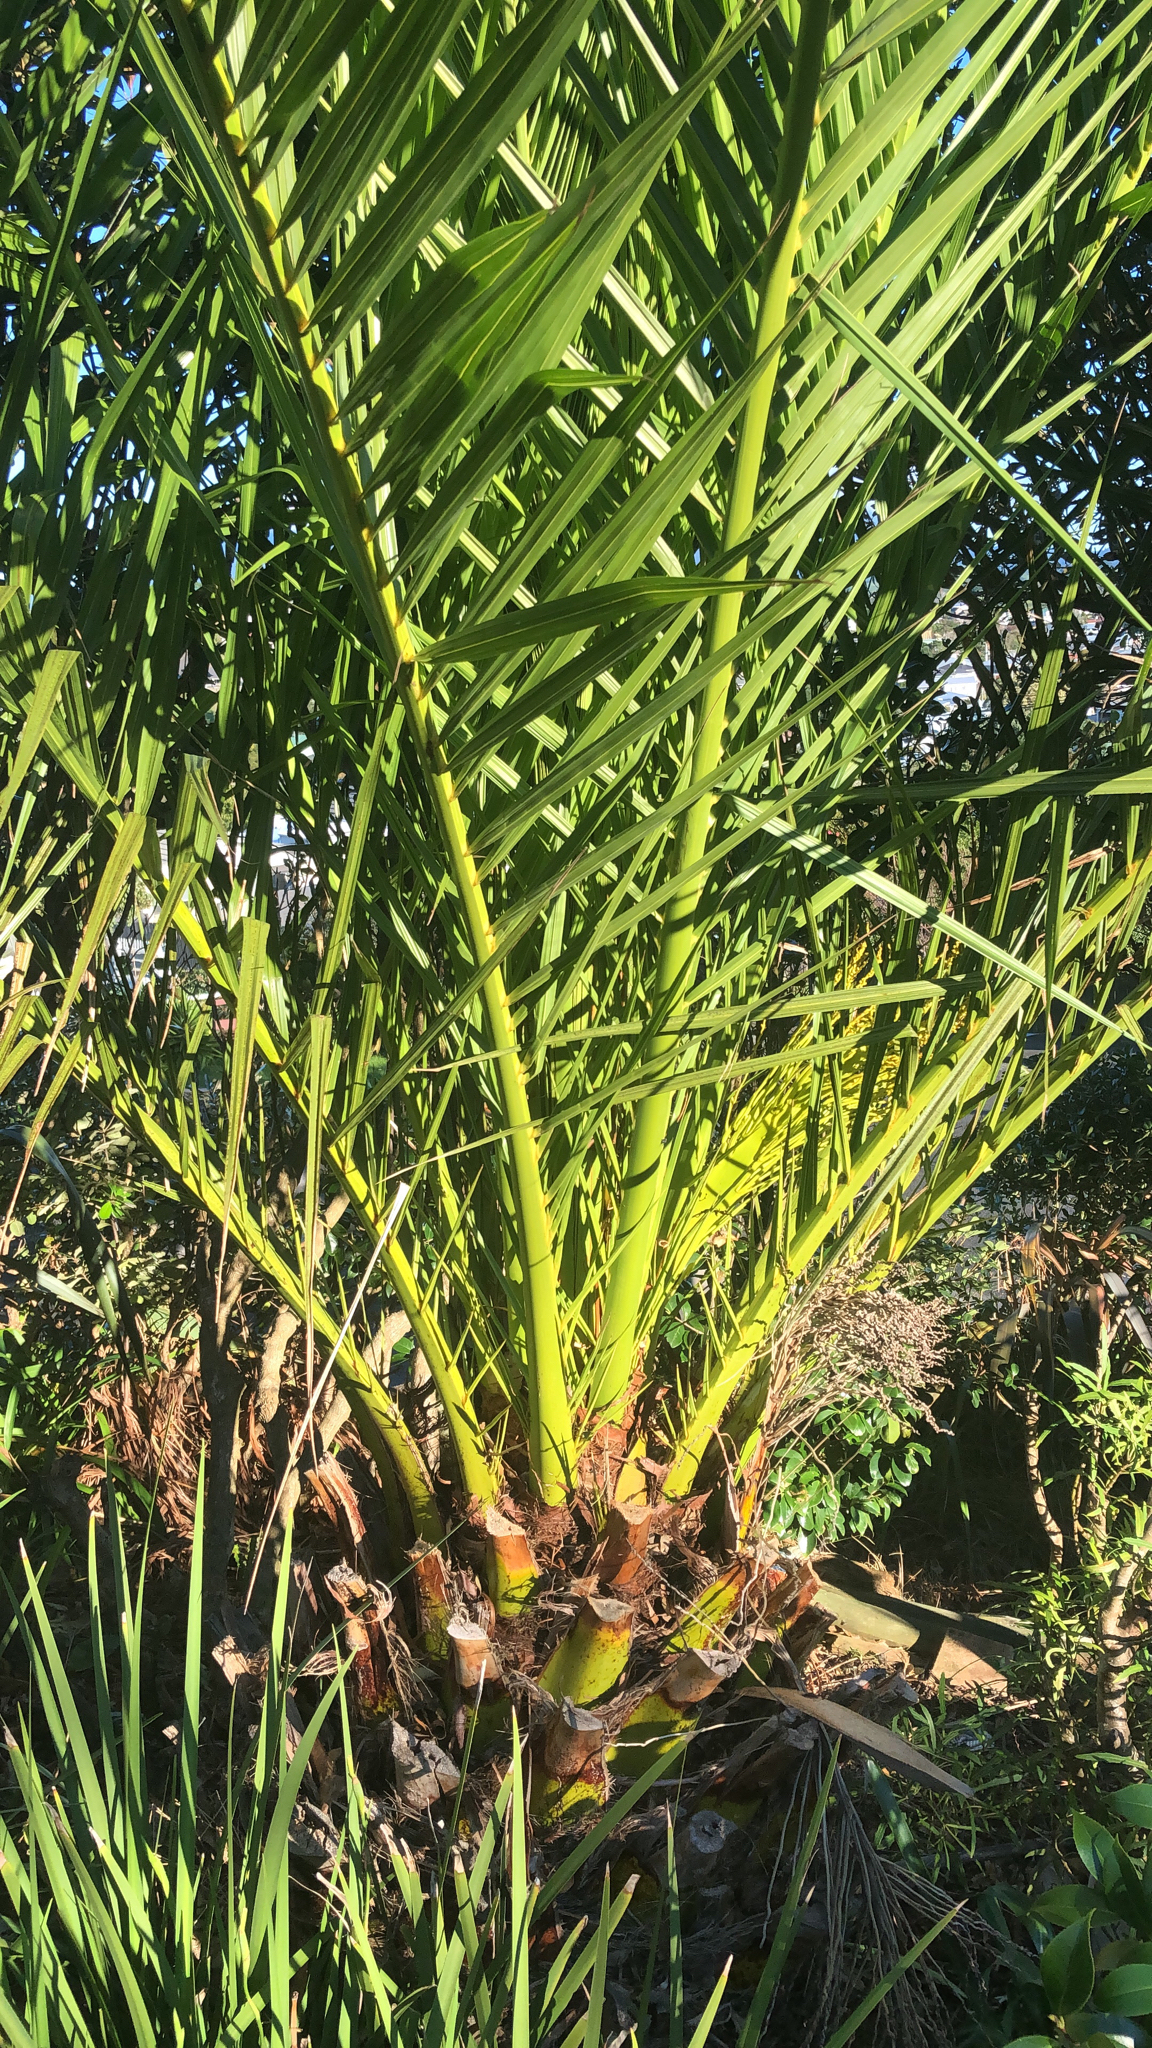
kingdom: Plantae
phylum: Tracheophyta
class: Liliopsida
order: Arecales
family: Arecaceae
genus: Phoenix
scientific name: Phoenix canariensis
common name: Canary island date palm
